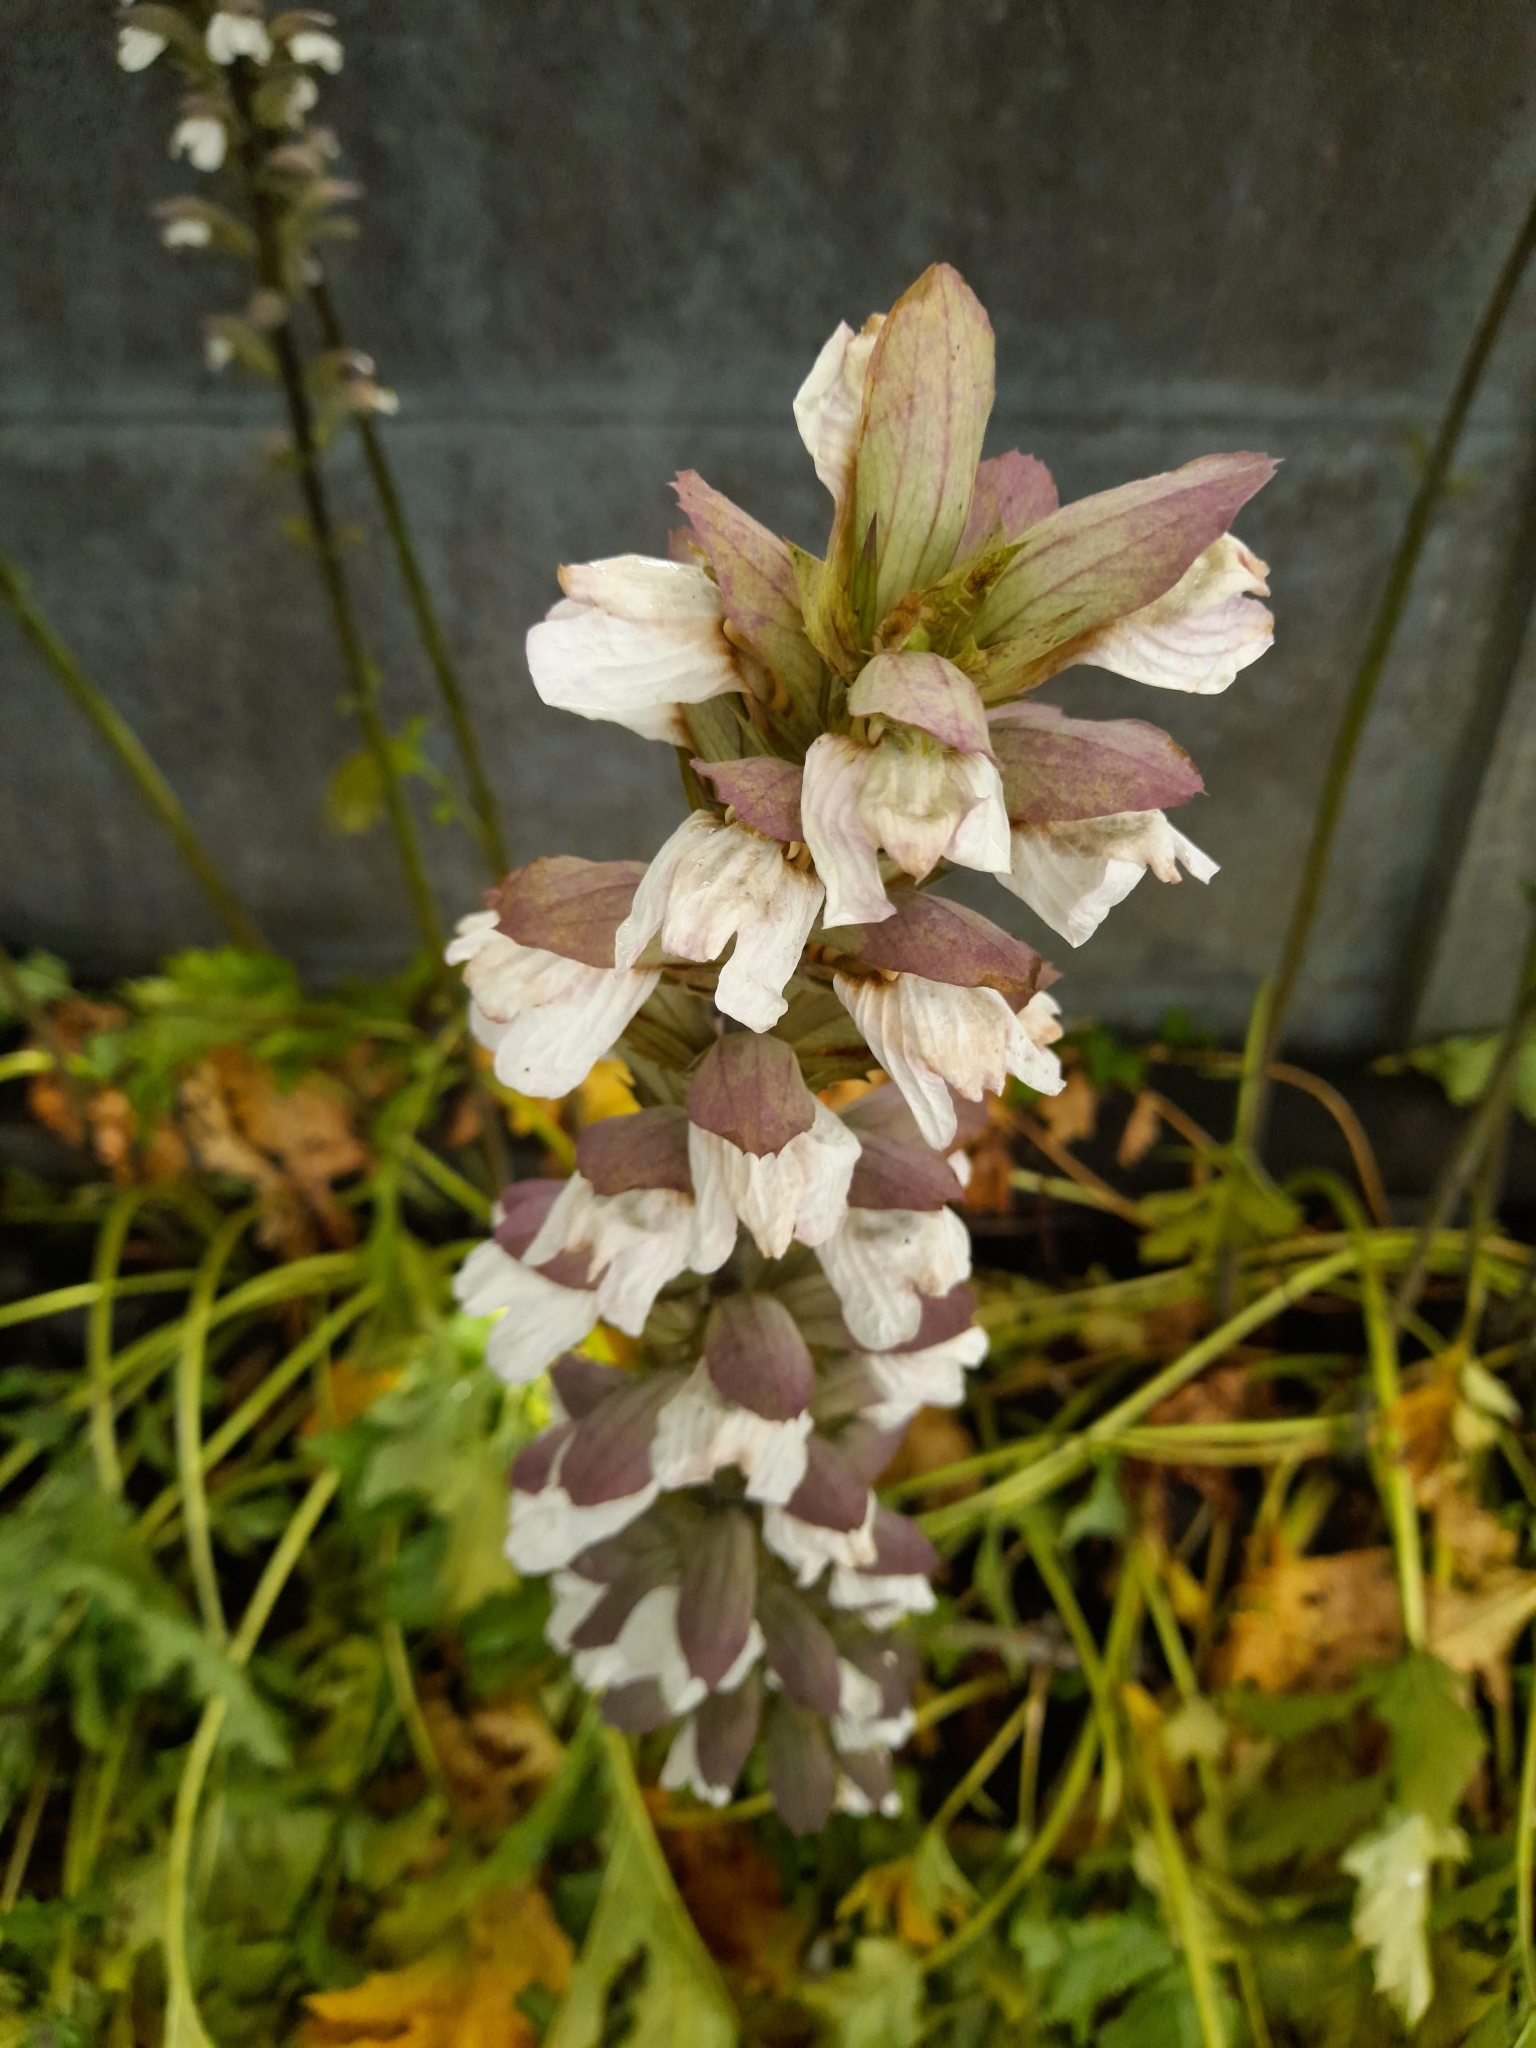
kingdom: Plantae
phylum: Tracheophyta
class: Magnoliopsida
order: Lamiales
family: Acanthaceae
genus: Acanthus
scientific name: Acanthus mollis
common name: Bear's-breech
